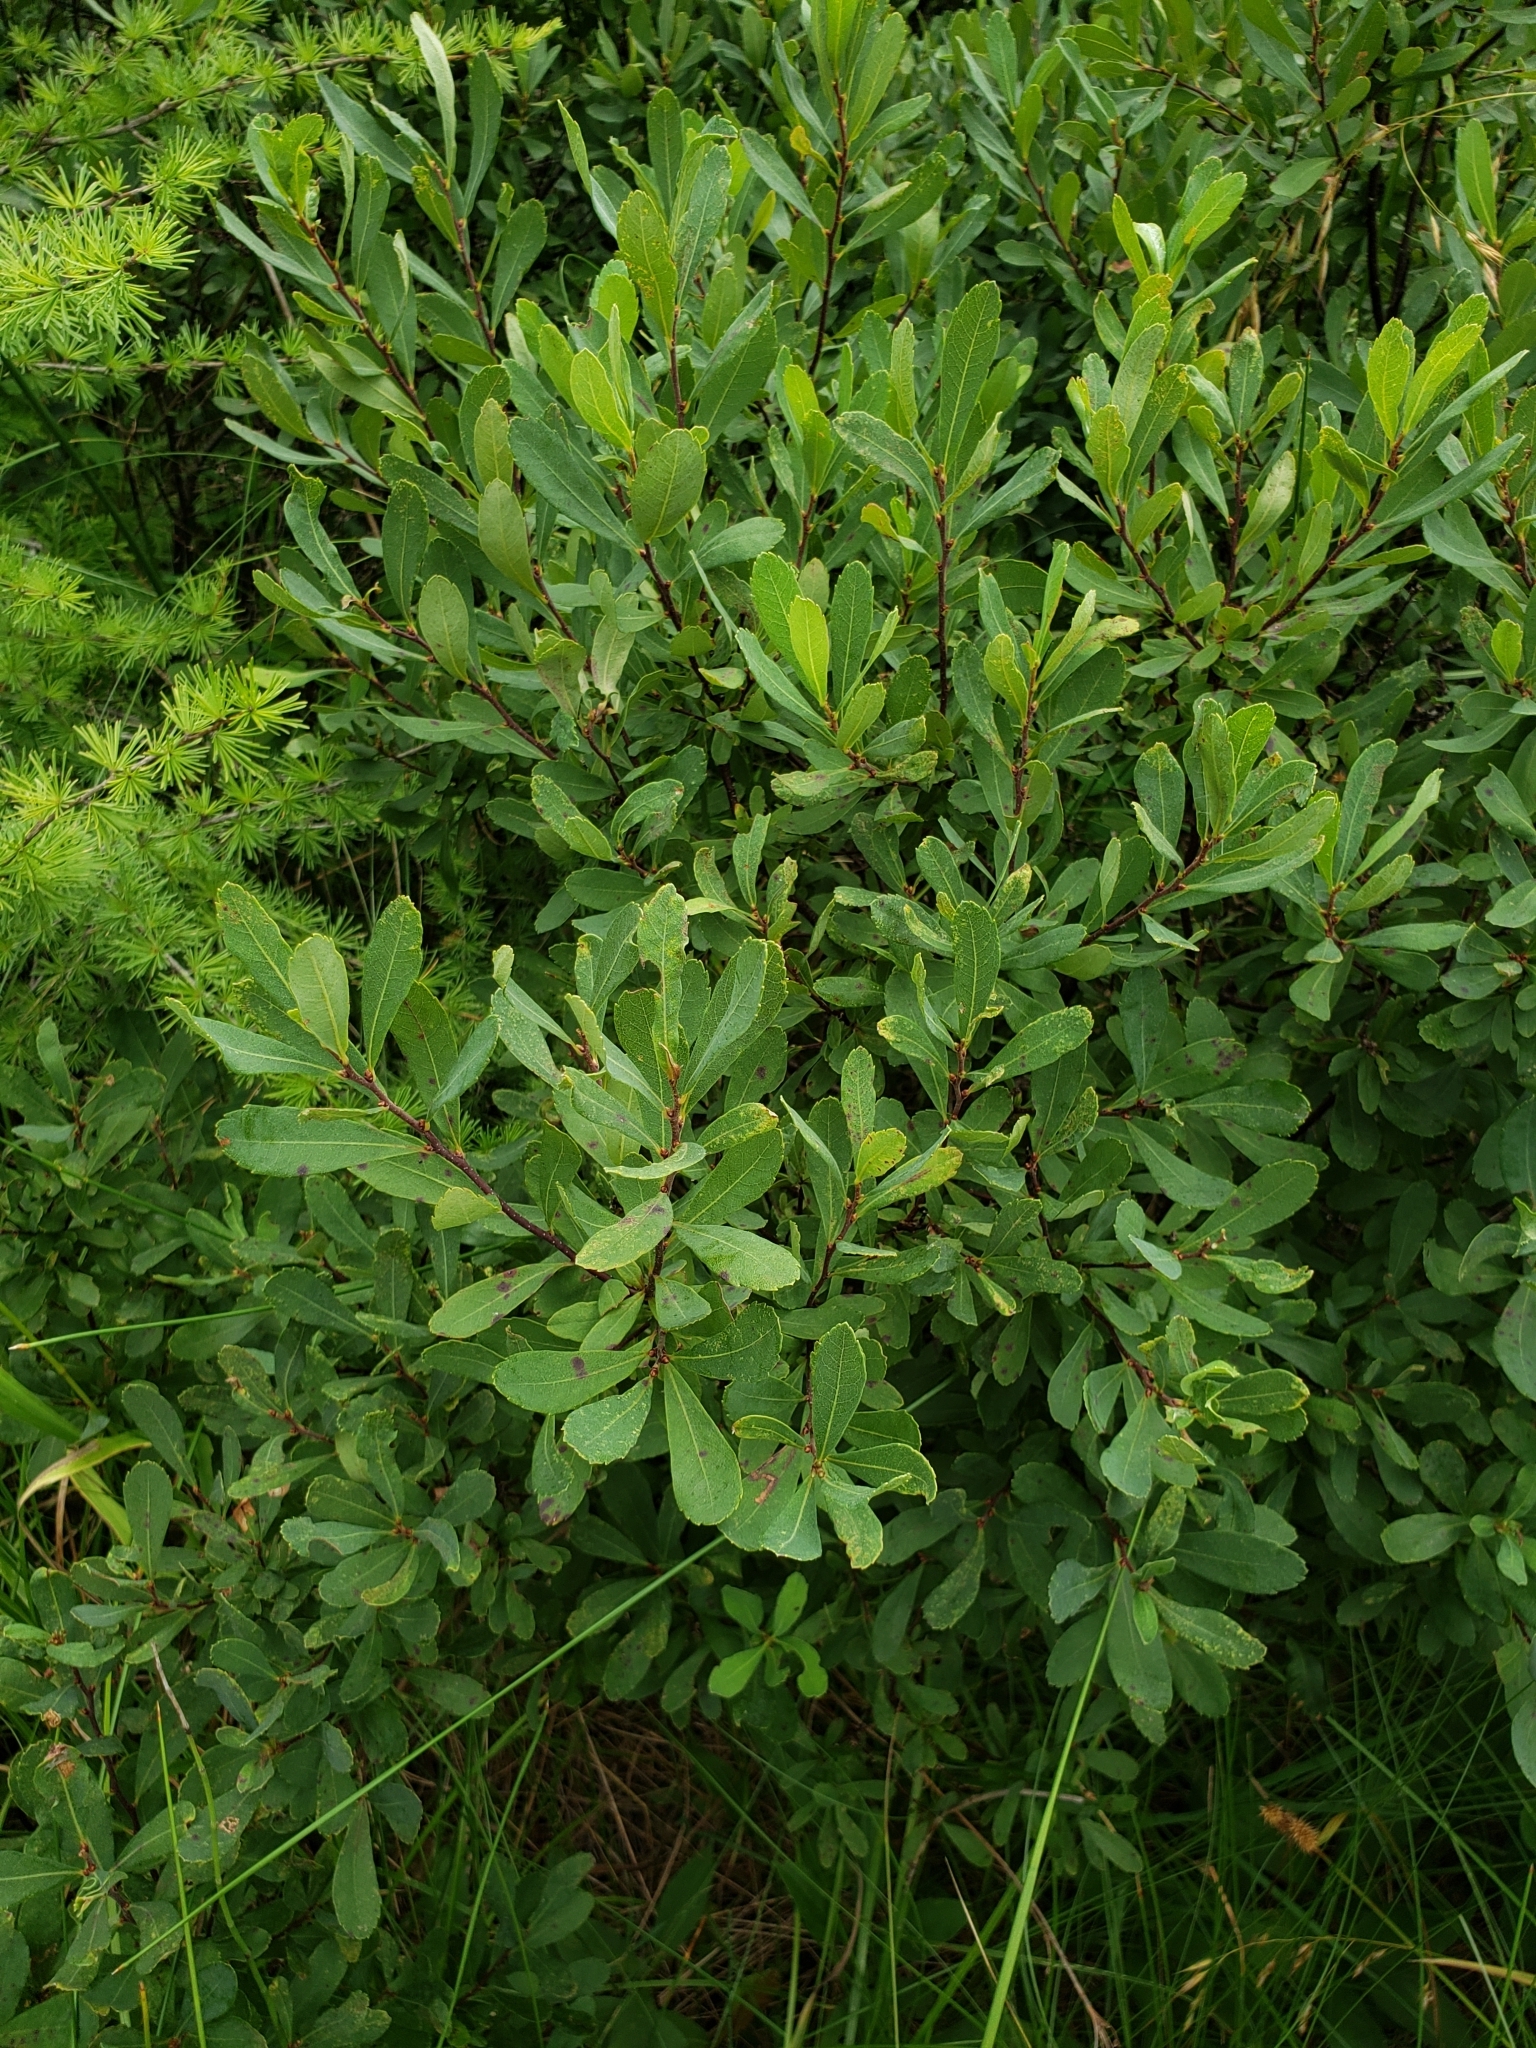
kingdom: Plantae
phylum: Tracheophyta
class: Magnoliopsida
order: Fagales
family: Myricaceae
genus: Myrica
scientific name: Myrica gale
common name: Sweet gale
